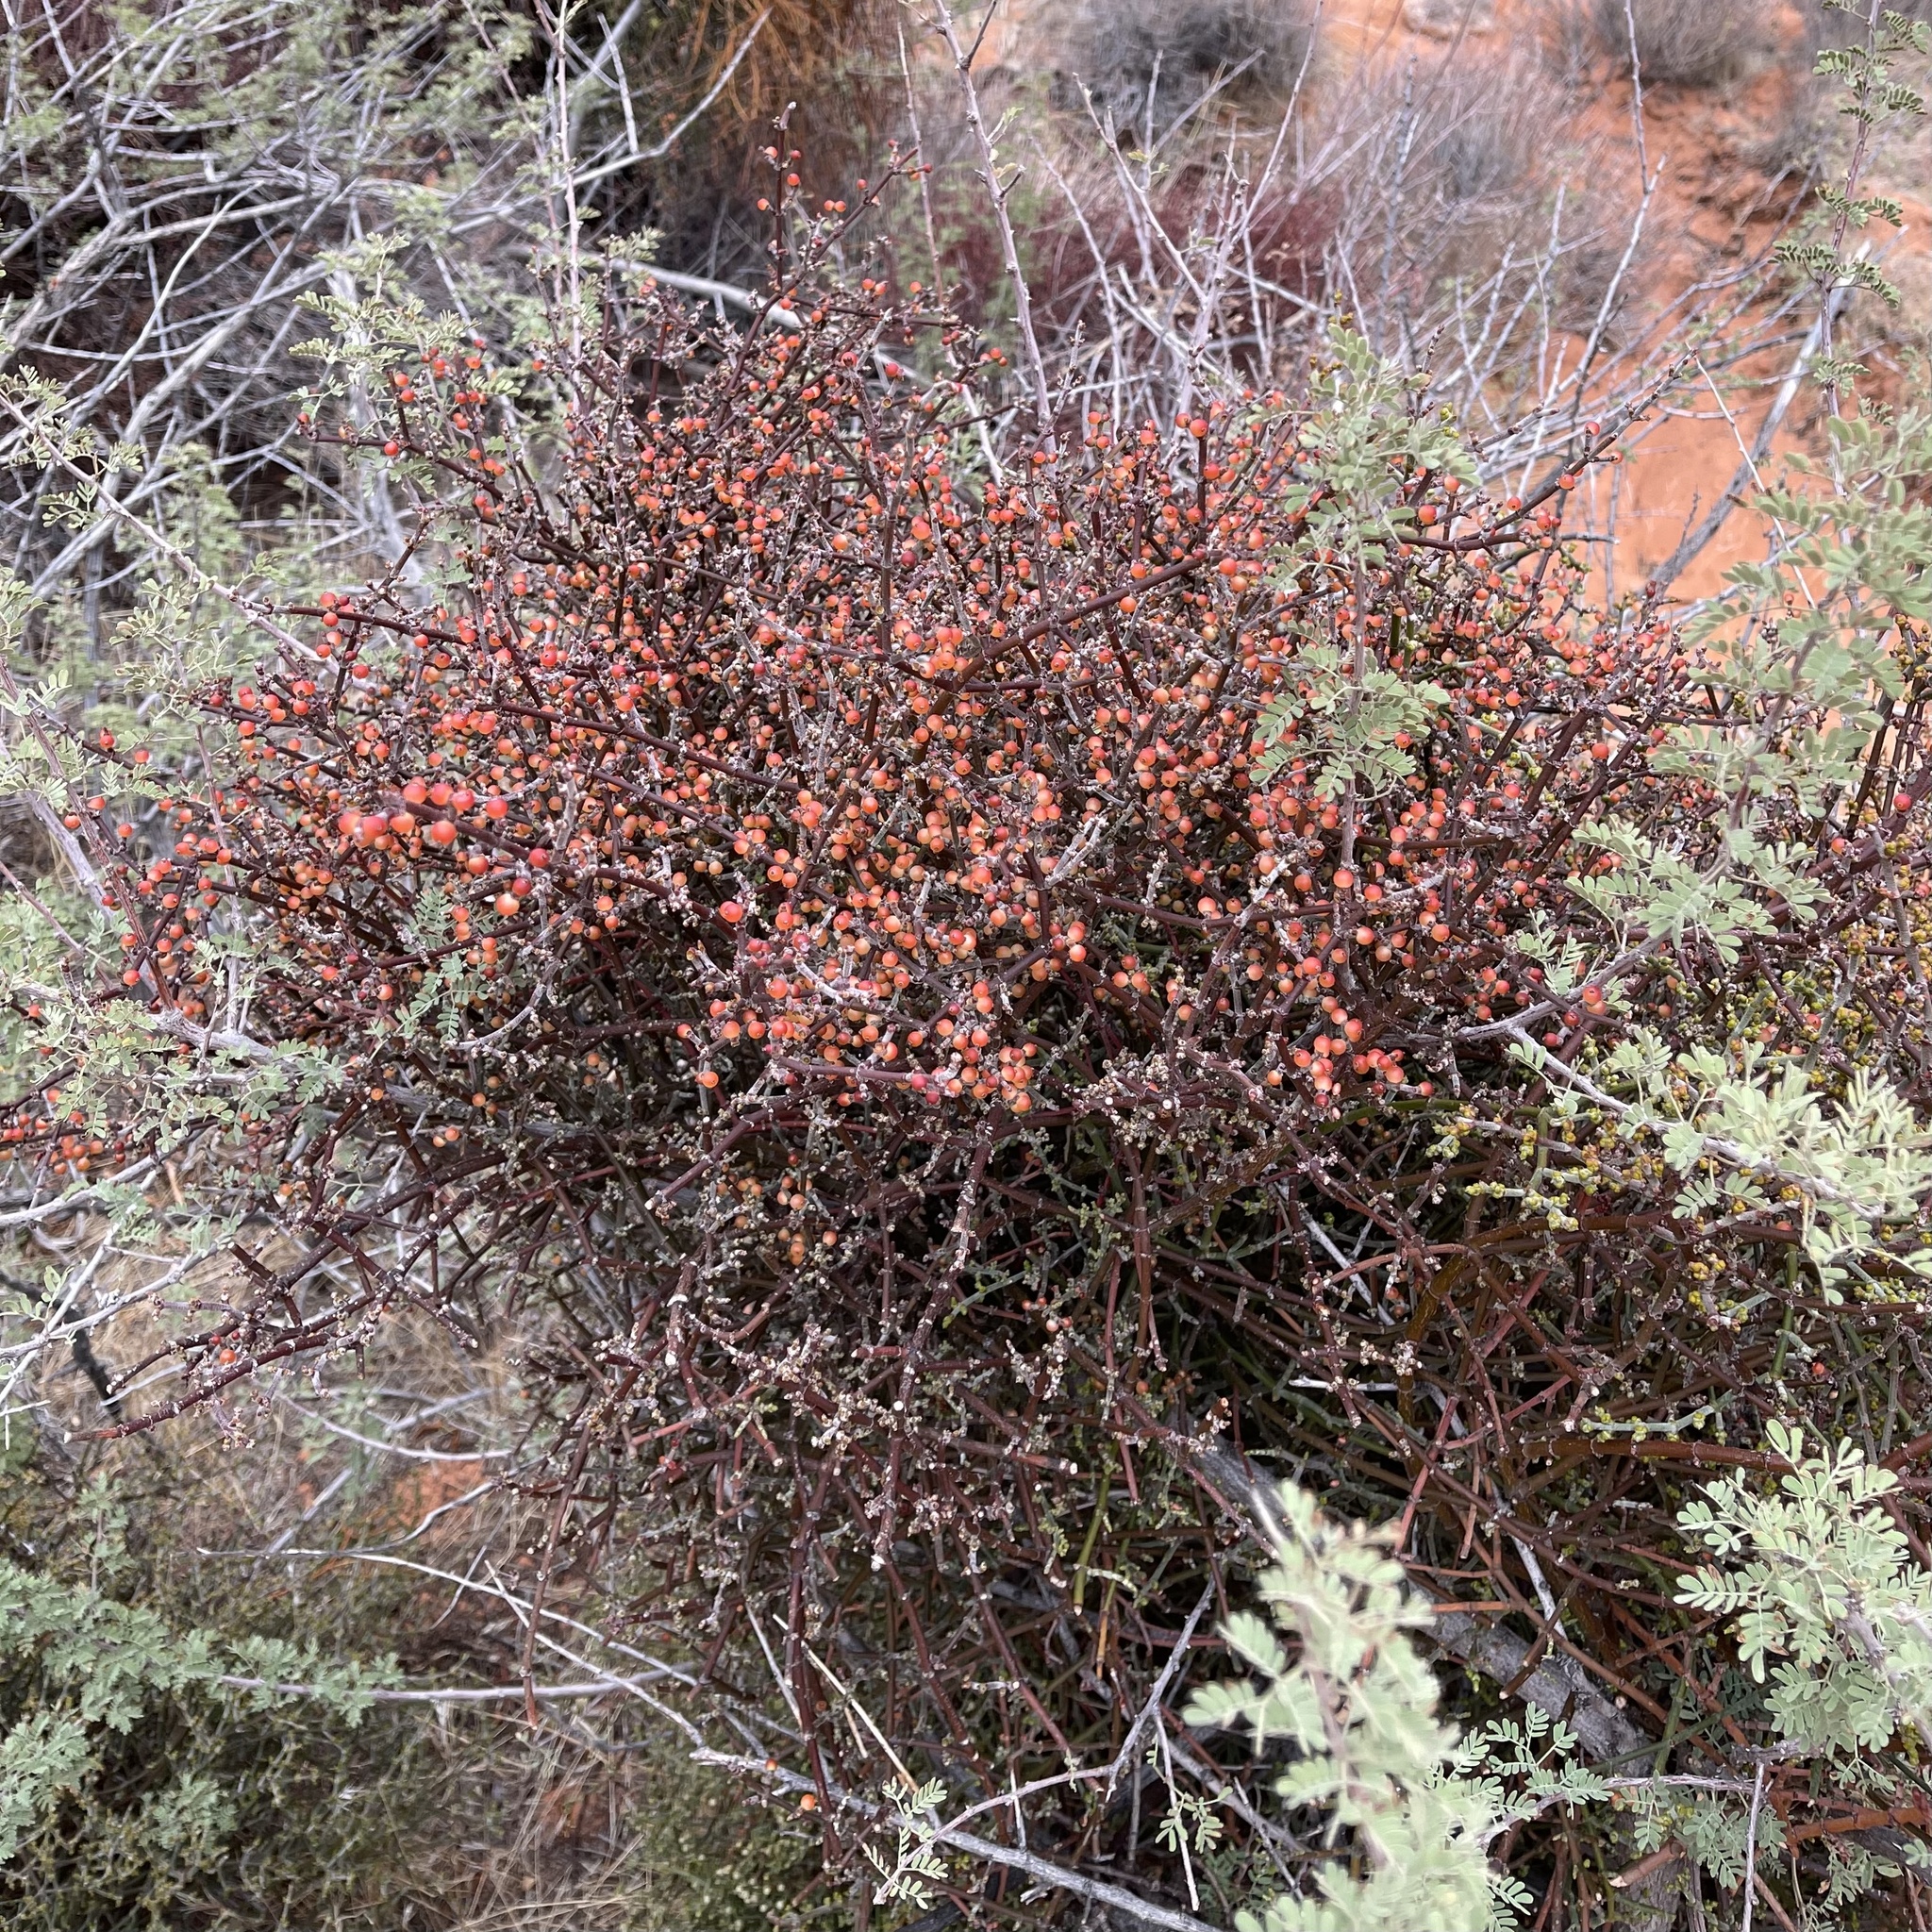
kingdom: Plantae
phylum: Tracheophyta
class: Magnoliopsida
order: Santalales
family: Viscaceae
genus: Phoradendron
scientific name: Phoradendron californicum
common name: Acacia mistletoe
